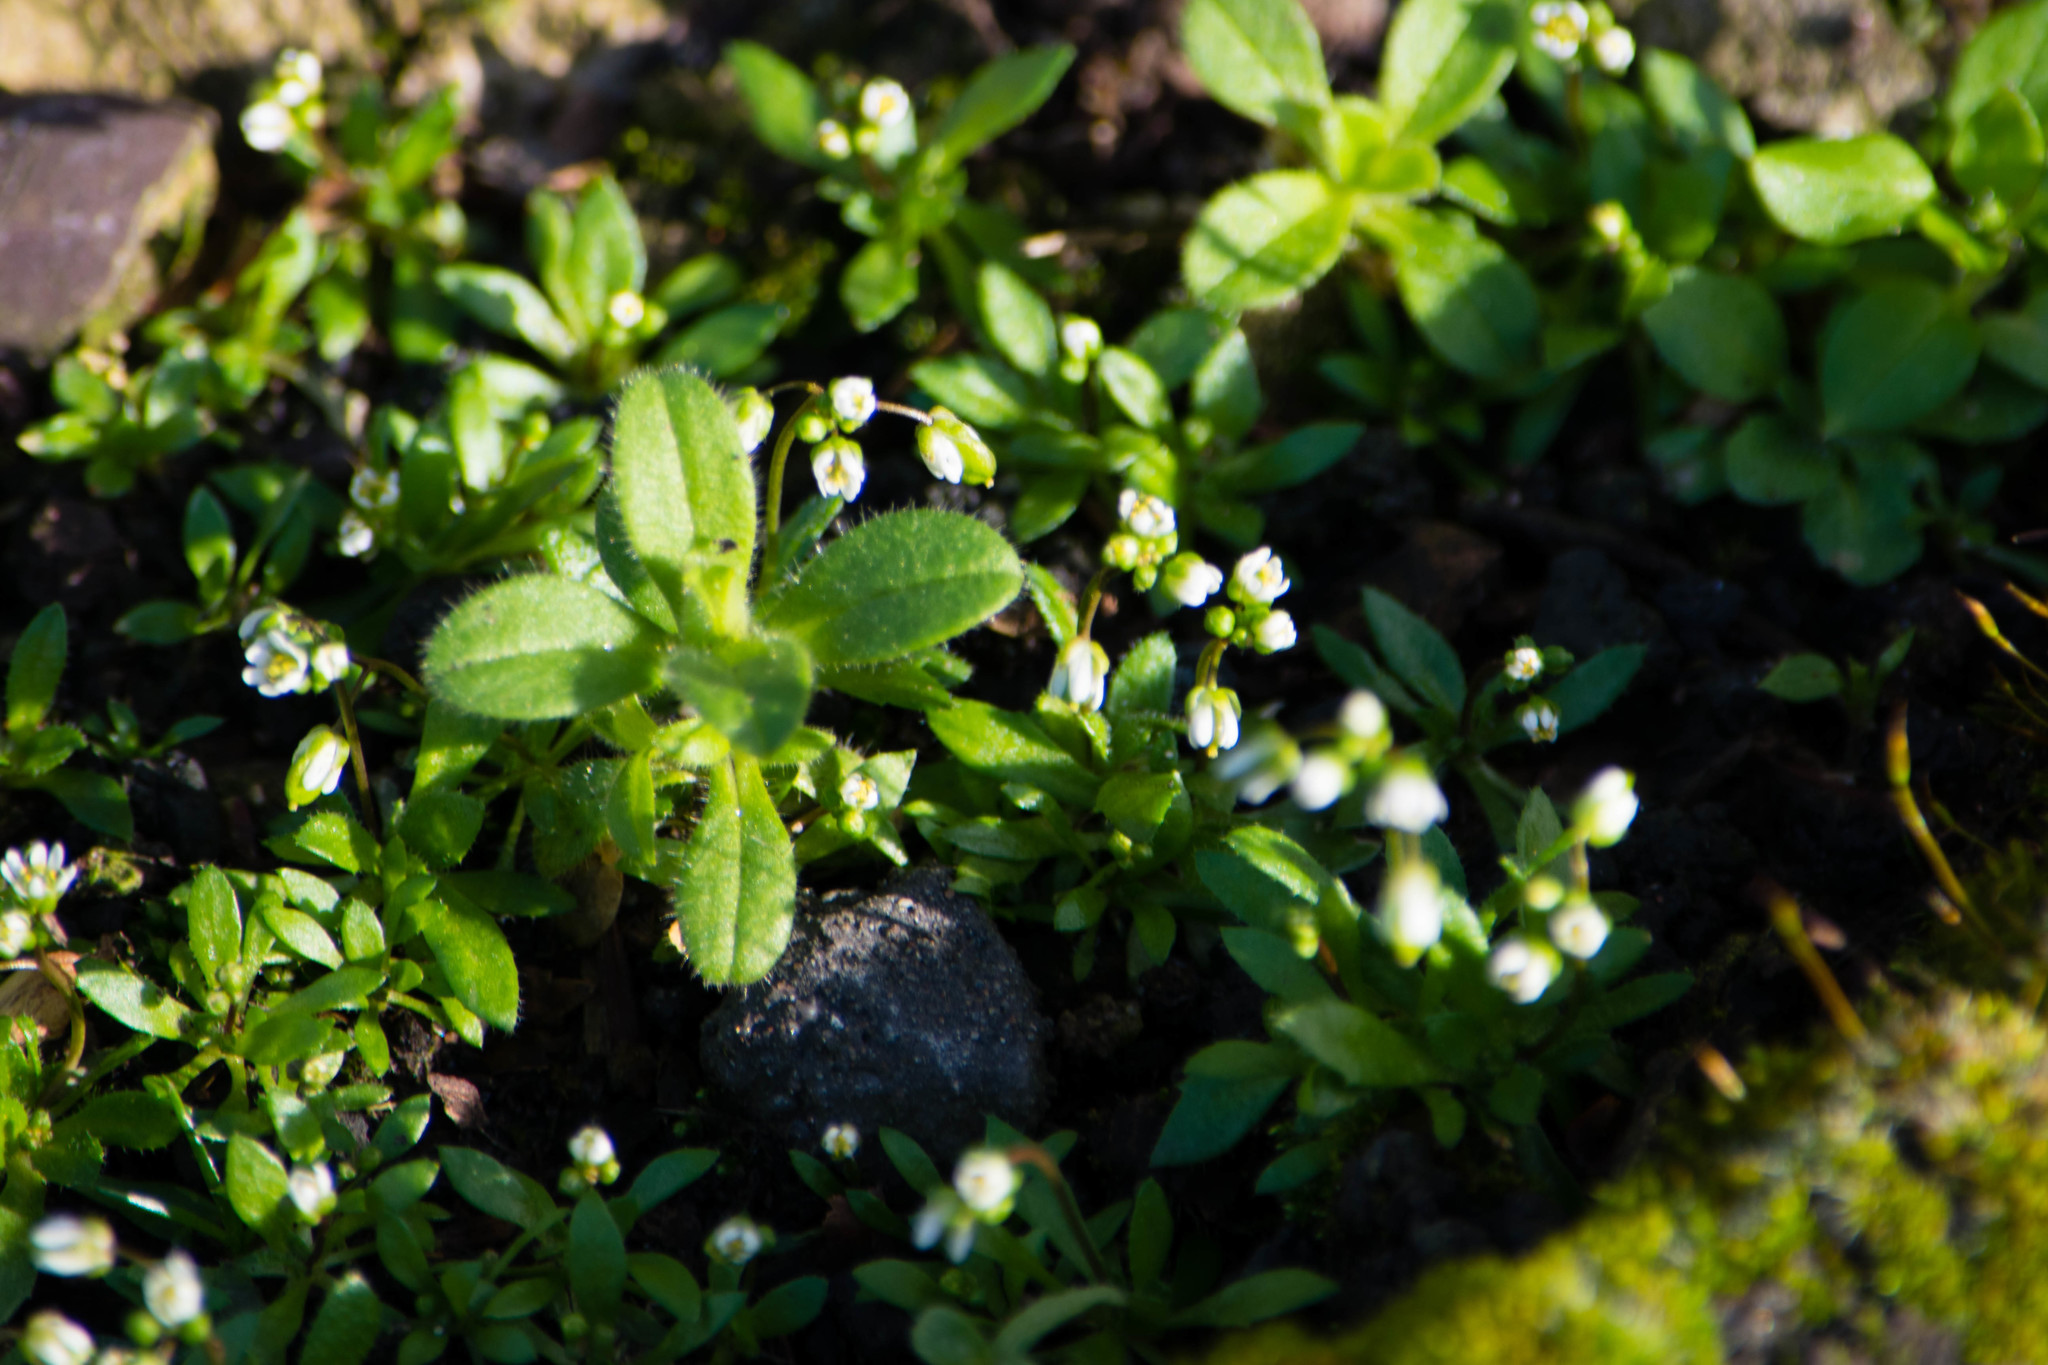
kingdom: Plantae
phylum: Tracheophyta
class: Magnoliopsida
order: Brassicales
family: Brassicaceae
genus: Draba
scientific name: Draba verna
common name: Spring draba
